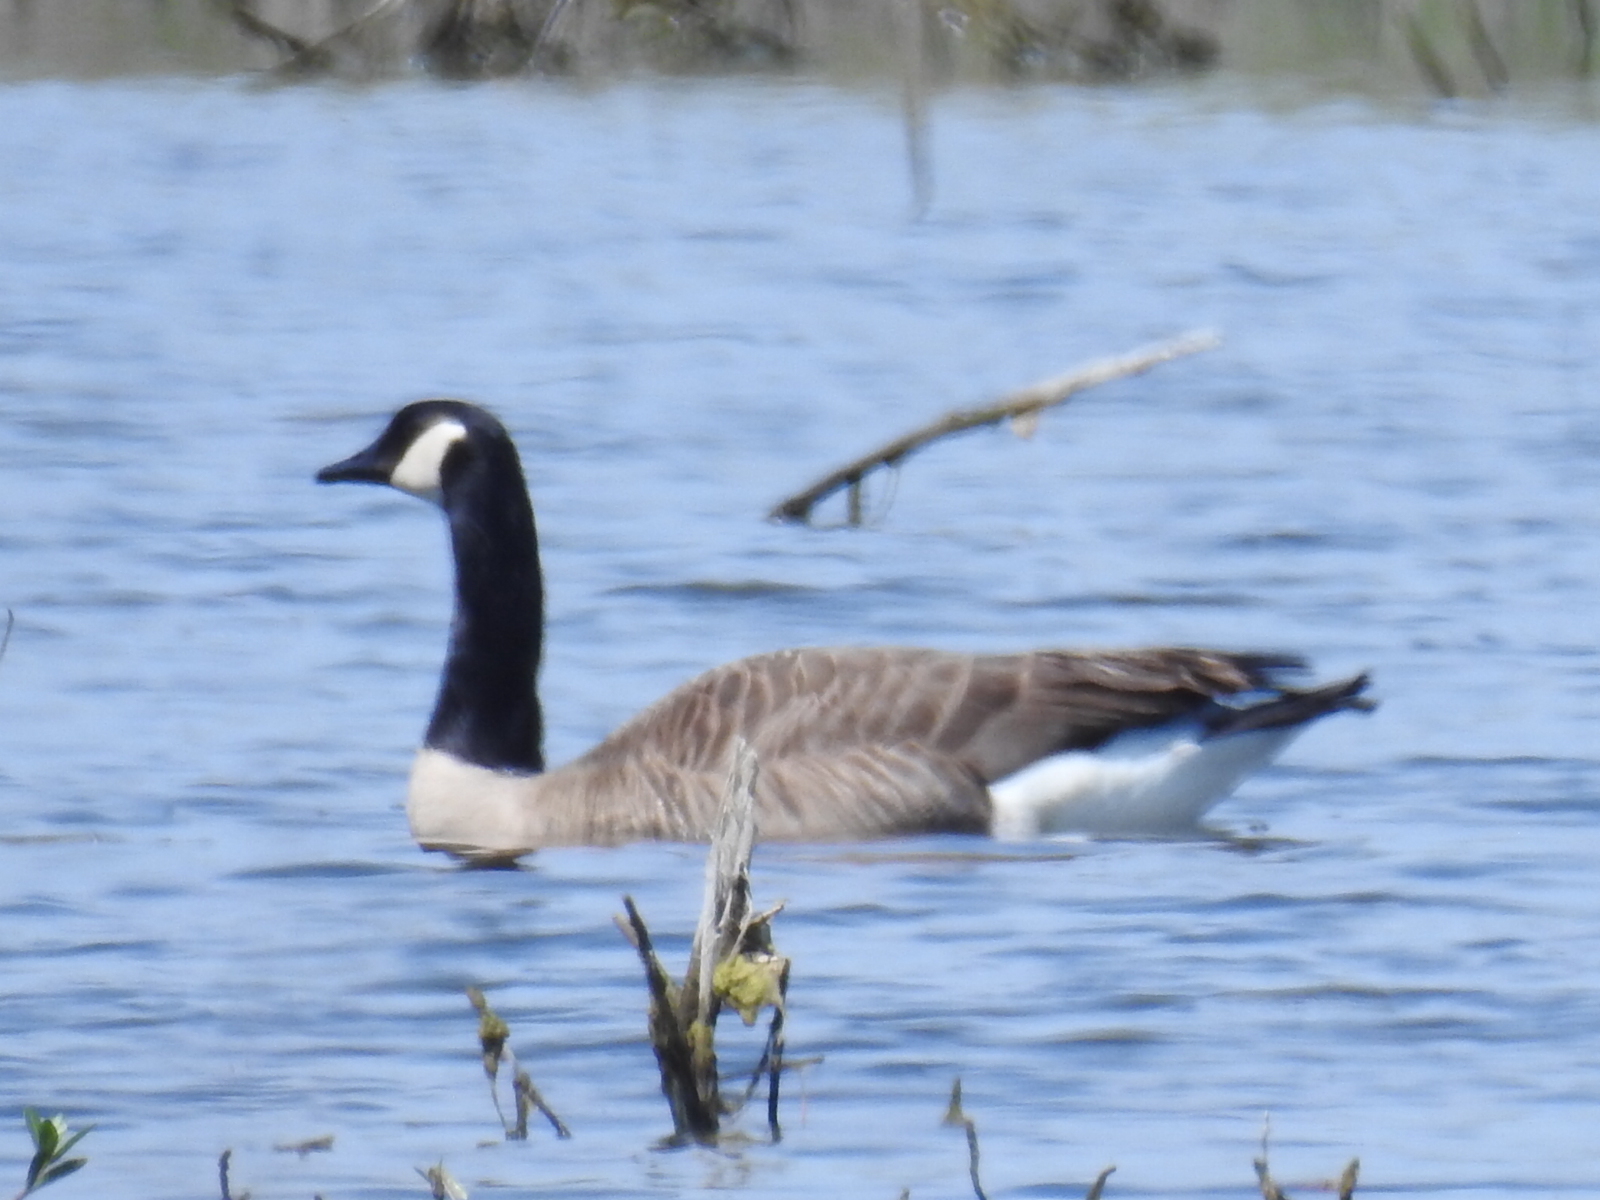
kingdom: Animalia
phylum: Chordata
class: Aves
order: Anseriformes
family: Anatidae
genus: Branta
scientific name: Branta canadensis
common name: Canada goose
